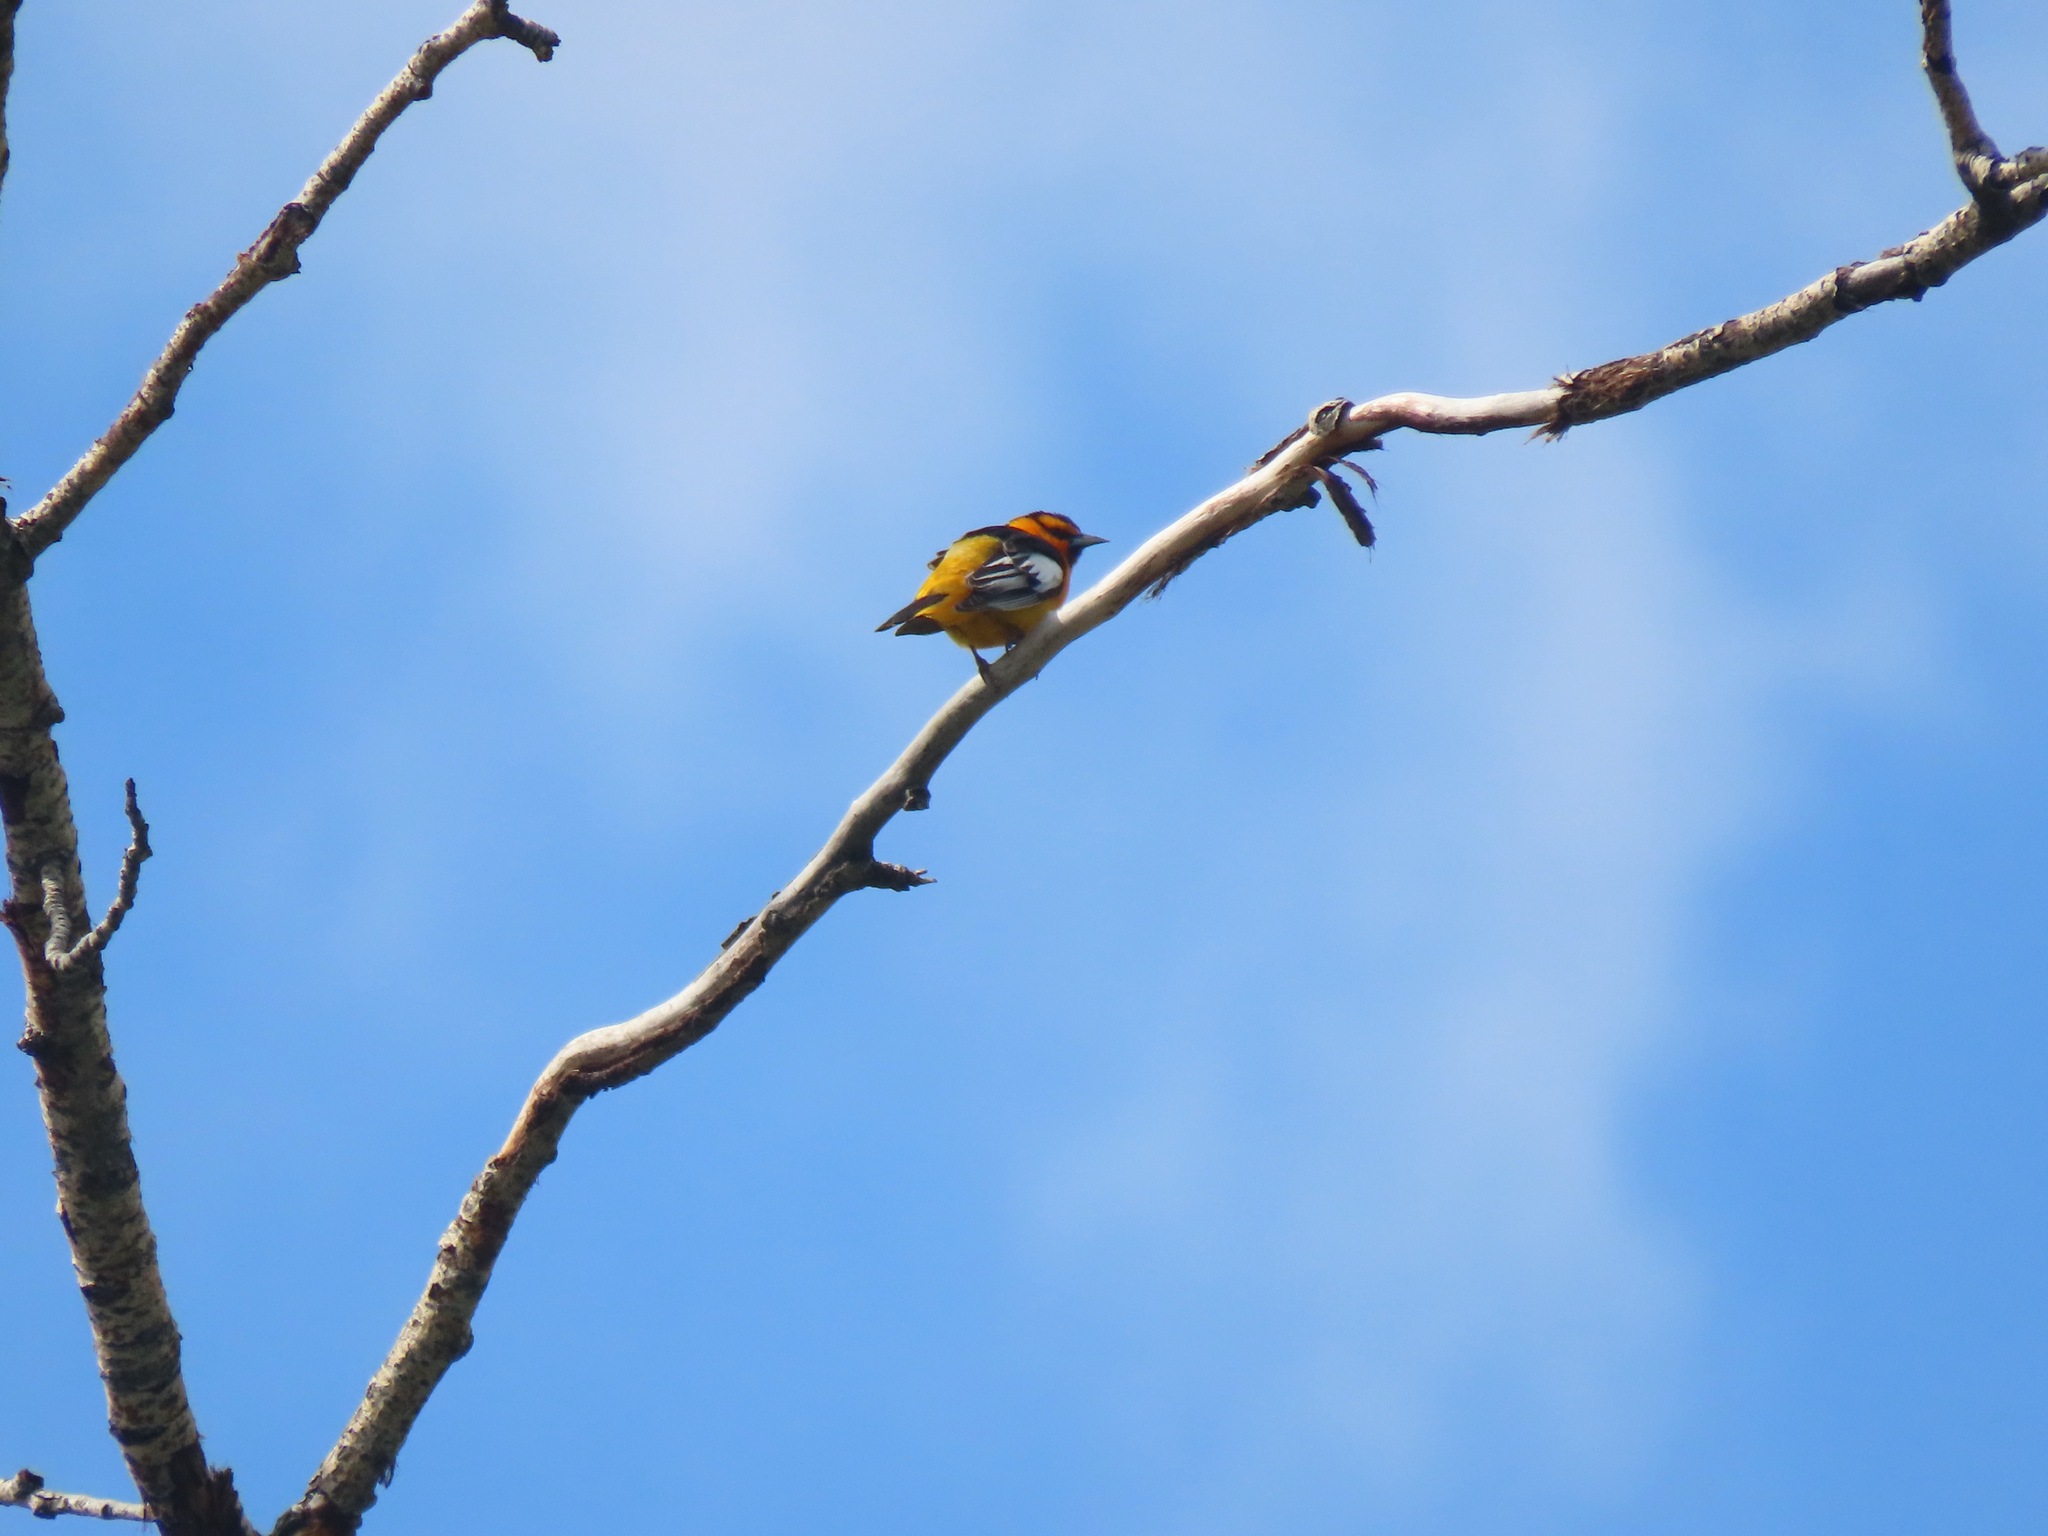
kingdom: Animalia
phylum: Chordata
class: Aves
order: Passeriformes
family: Icteridae
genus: Icterus
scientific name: Icterus bullockii
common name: Bullock's oriole
